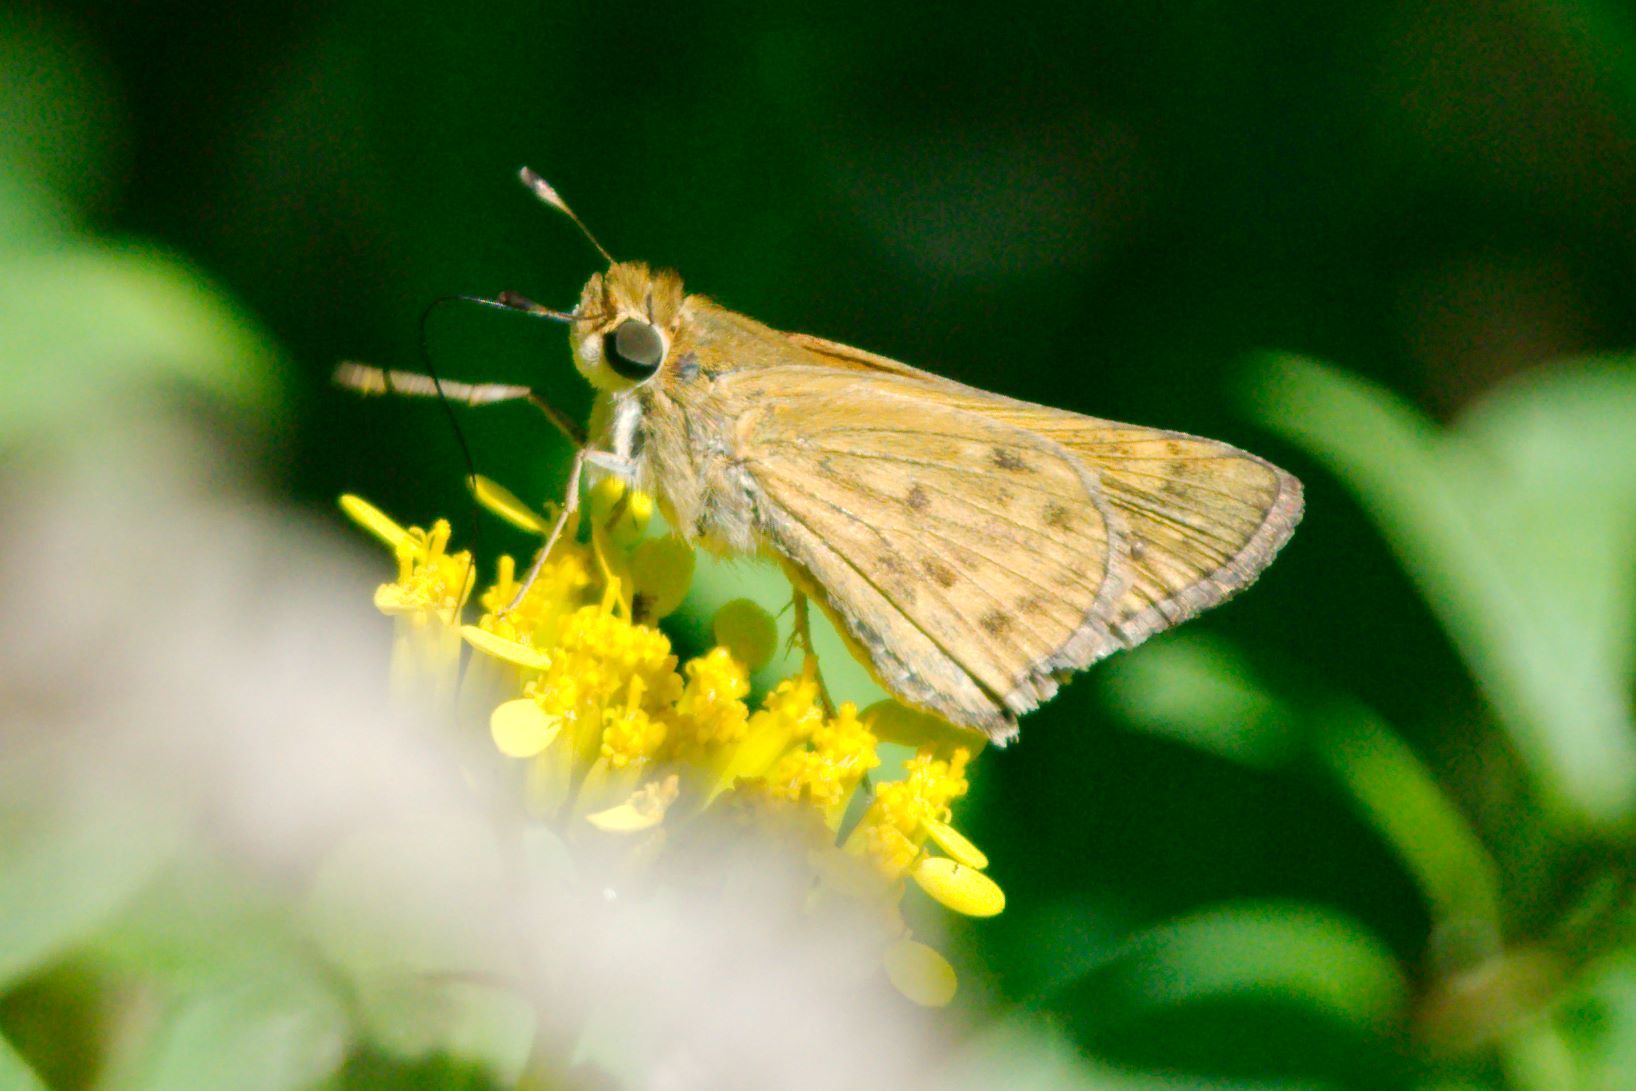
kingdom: Animalia
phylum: Arthropoda
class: Insecta
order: Lepidoptera
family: Hesperiidae
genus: Hylephila
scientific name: Hylephila phyleus
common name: Fiery skipper
